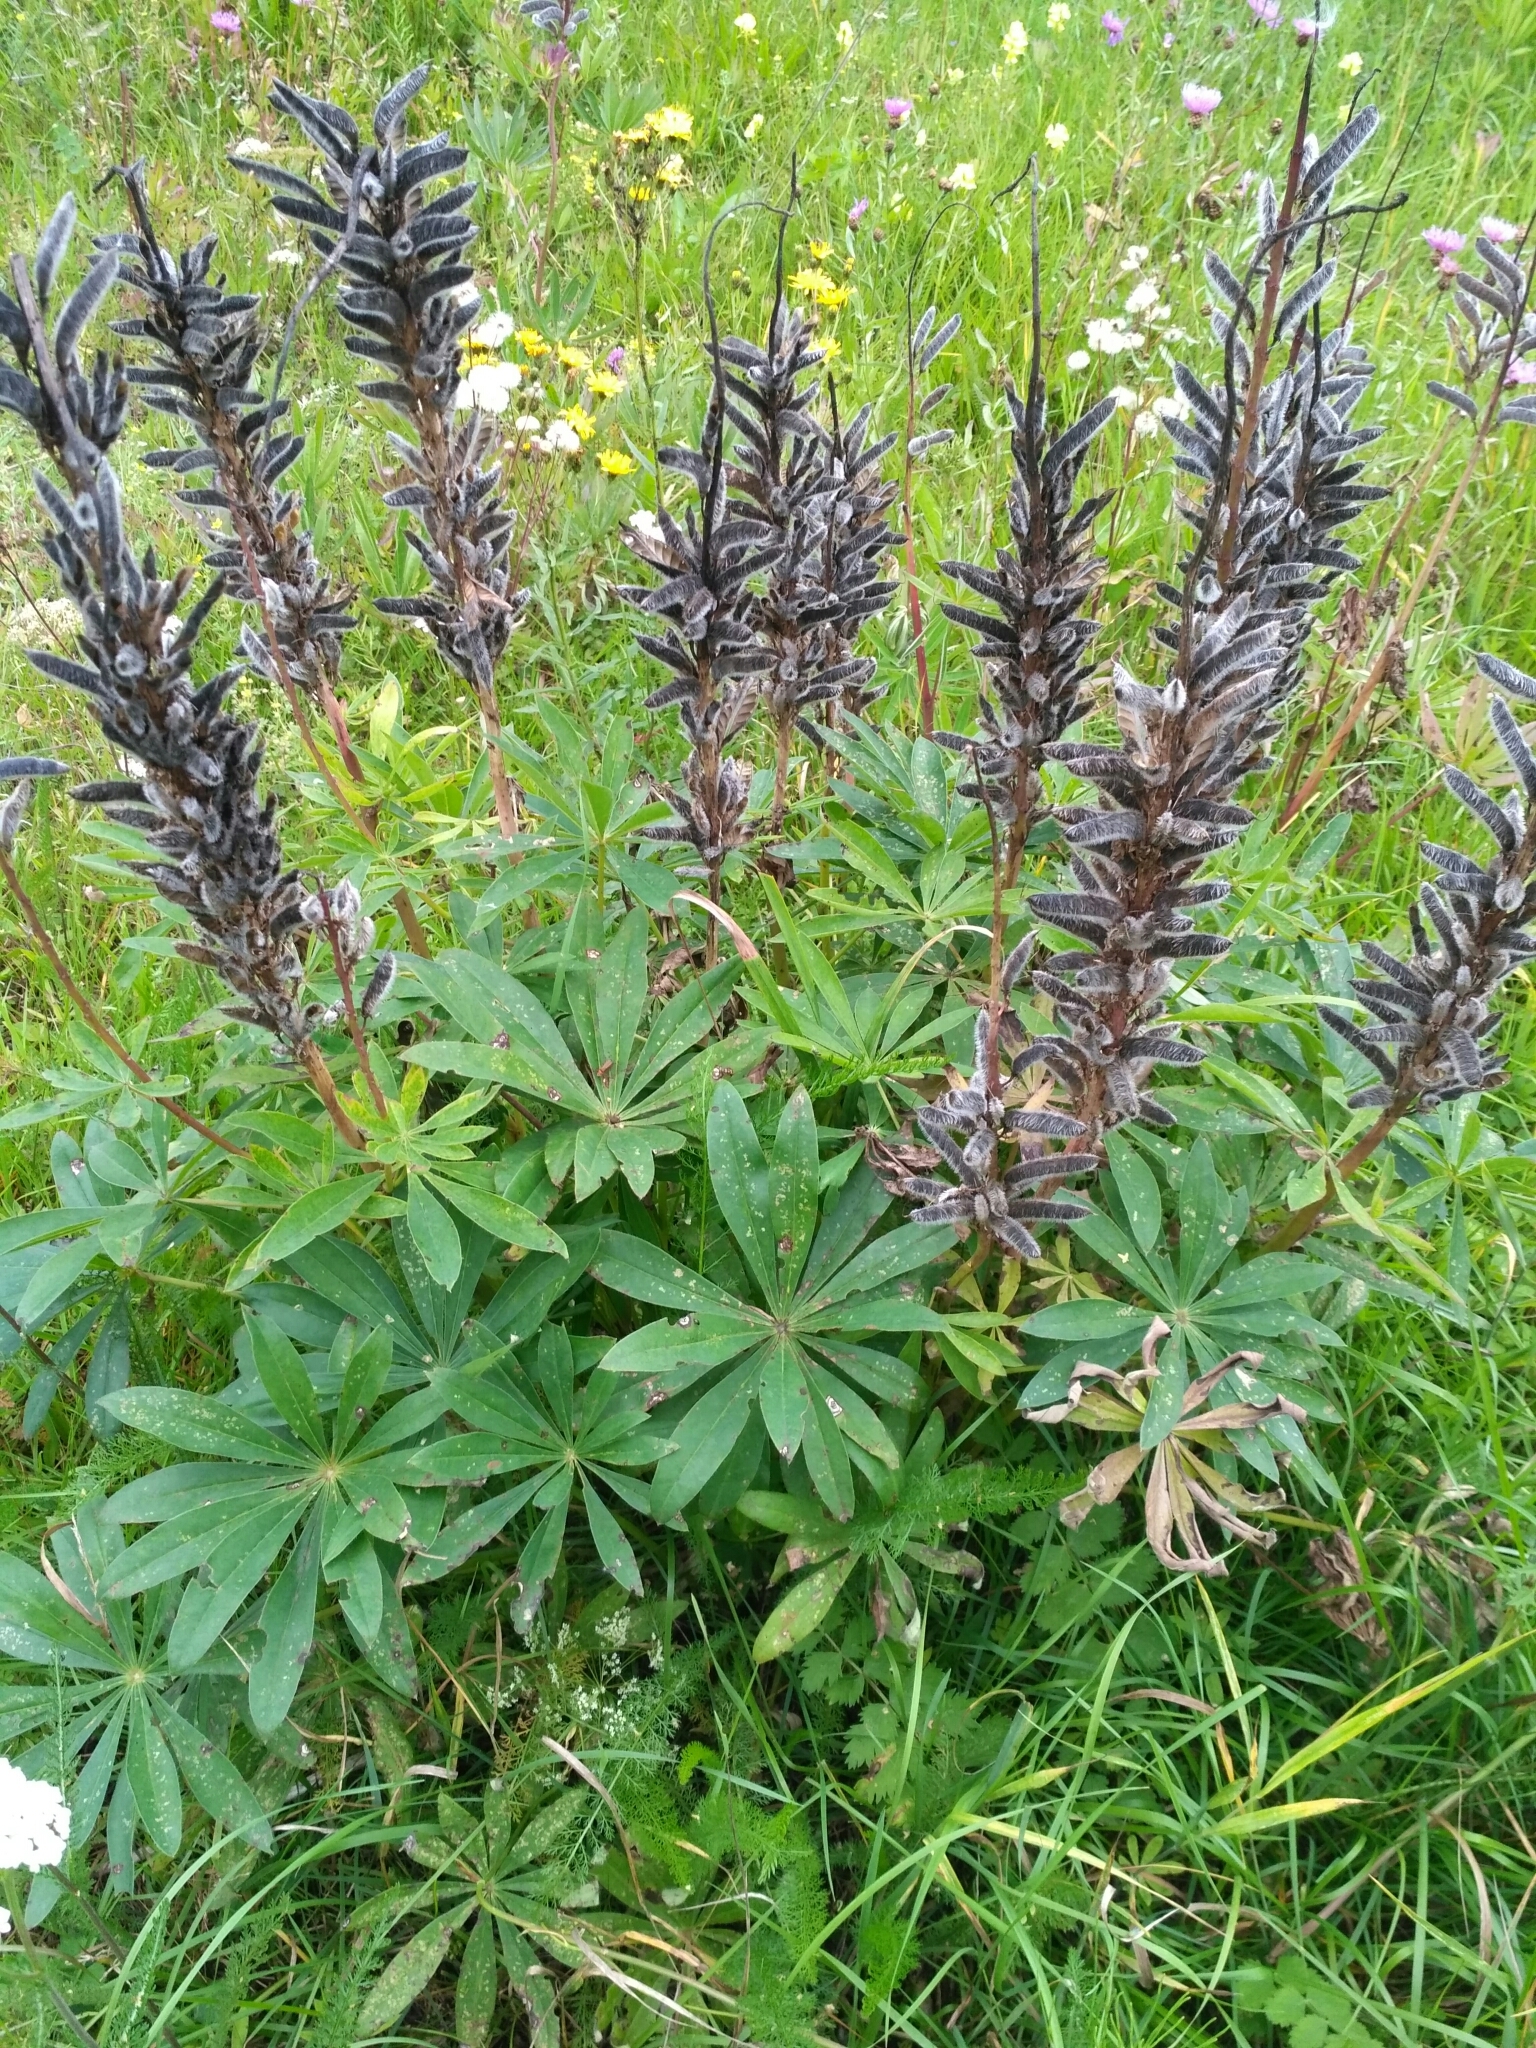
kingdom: Plantae
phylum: Tracheophyta
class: Magnoliopsida
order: Fabales
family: Fabaceae
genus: Lupinus
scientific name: Lupinus polyphyllus
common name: Garden lupin
